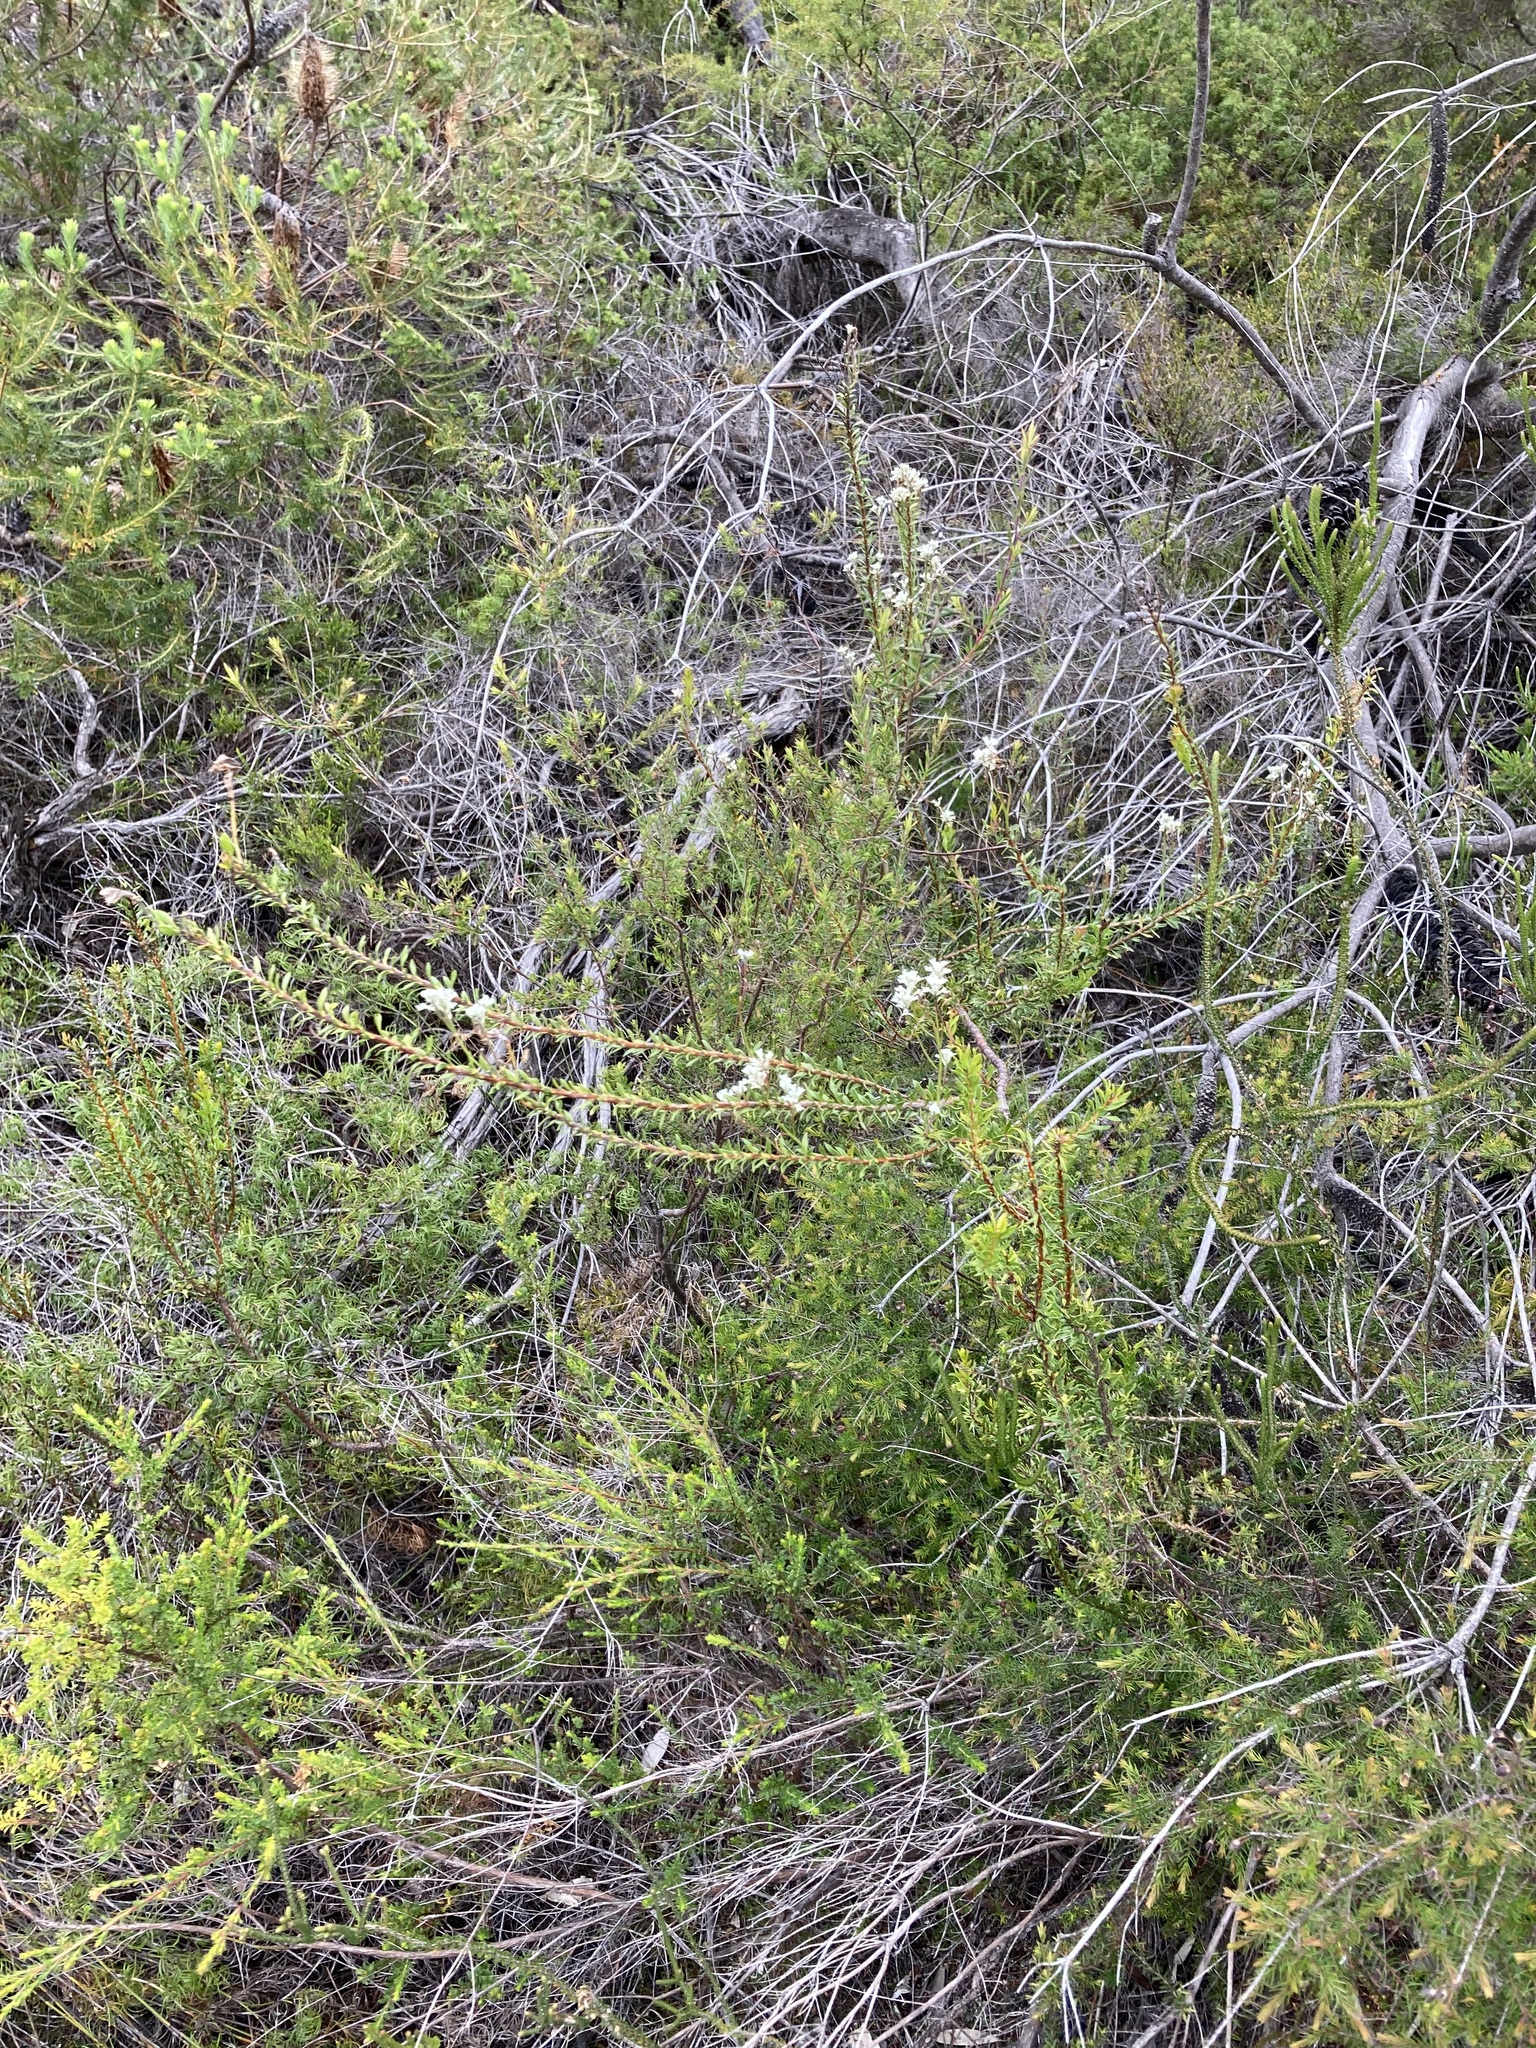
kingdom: Plantae
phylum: Tracheophyta
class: Magnoliopsida
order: Proteales
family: Proteaceae
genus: Conospermum
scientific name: Conospermum taxifolium
